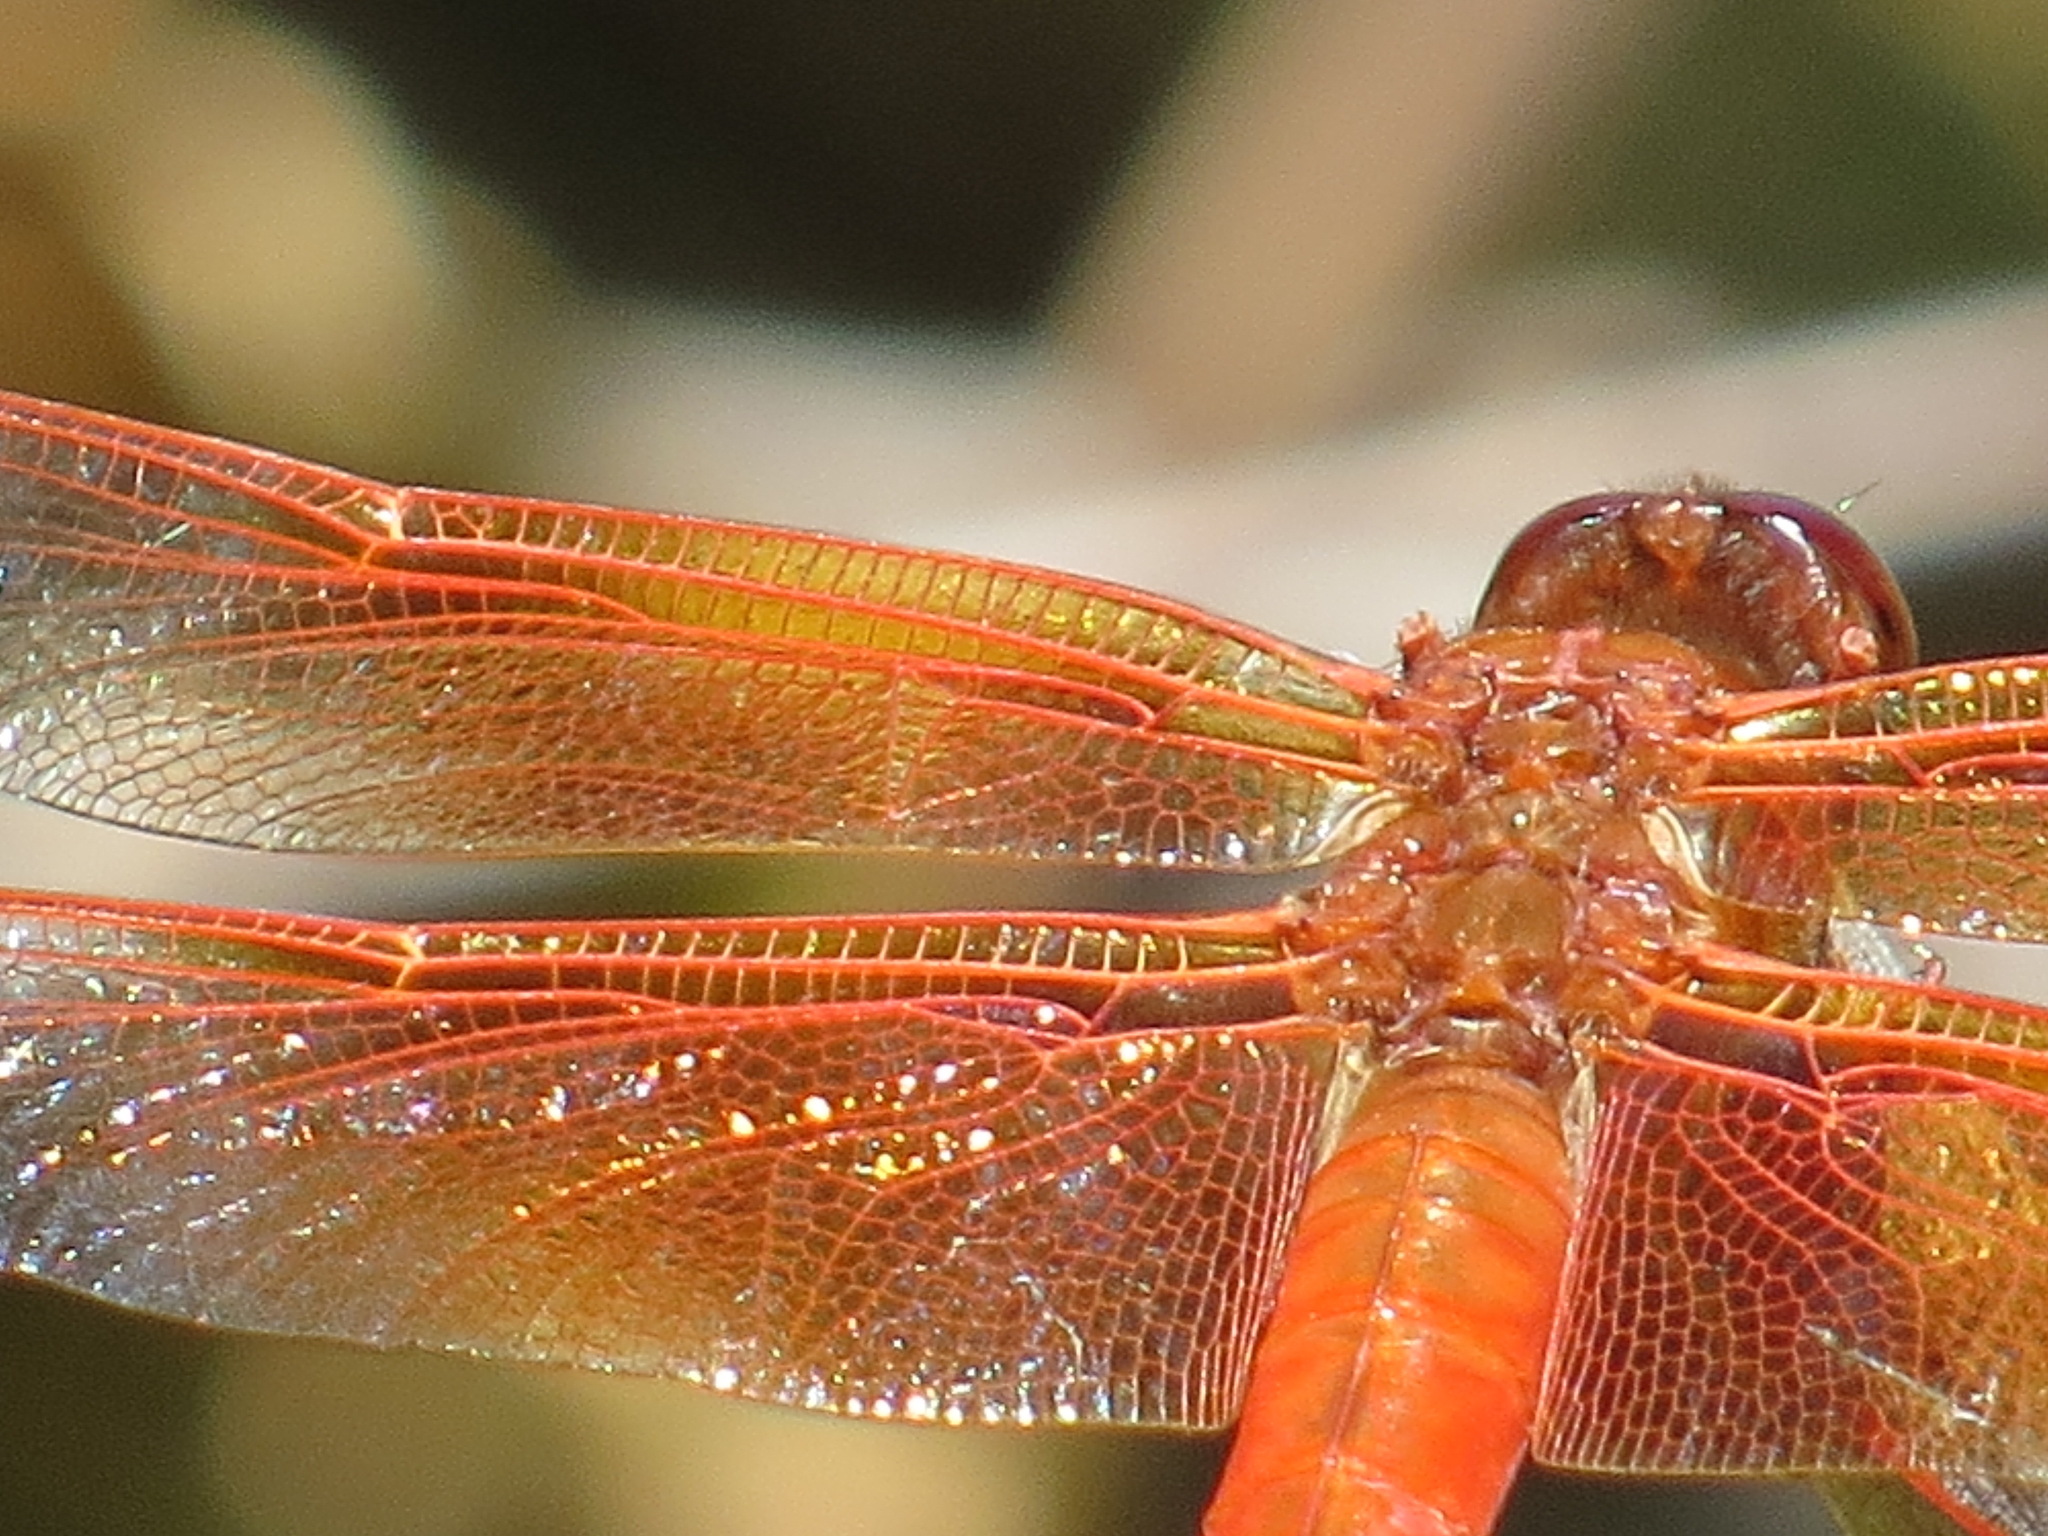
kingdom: Animalia
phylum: Arthropoda
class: Insecta
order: Odonata
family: Libellulidae
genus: Libellula
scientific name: Libellula saturata
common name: Flame skimmer
